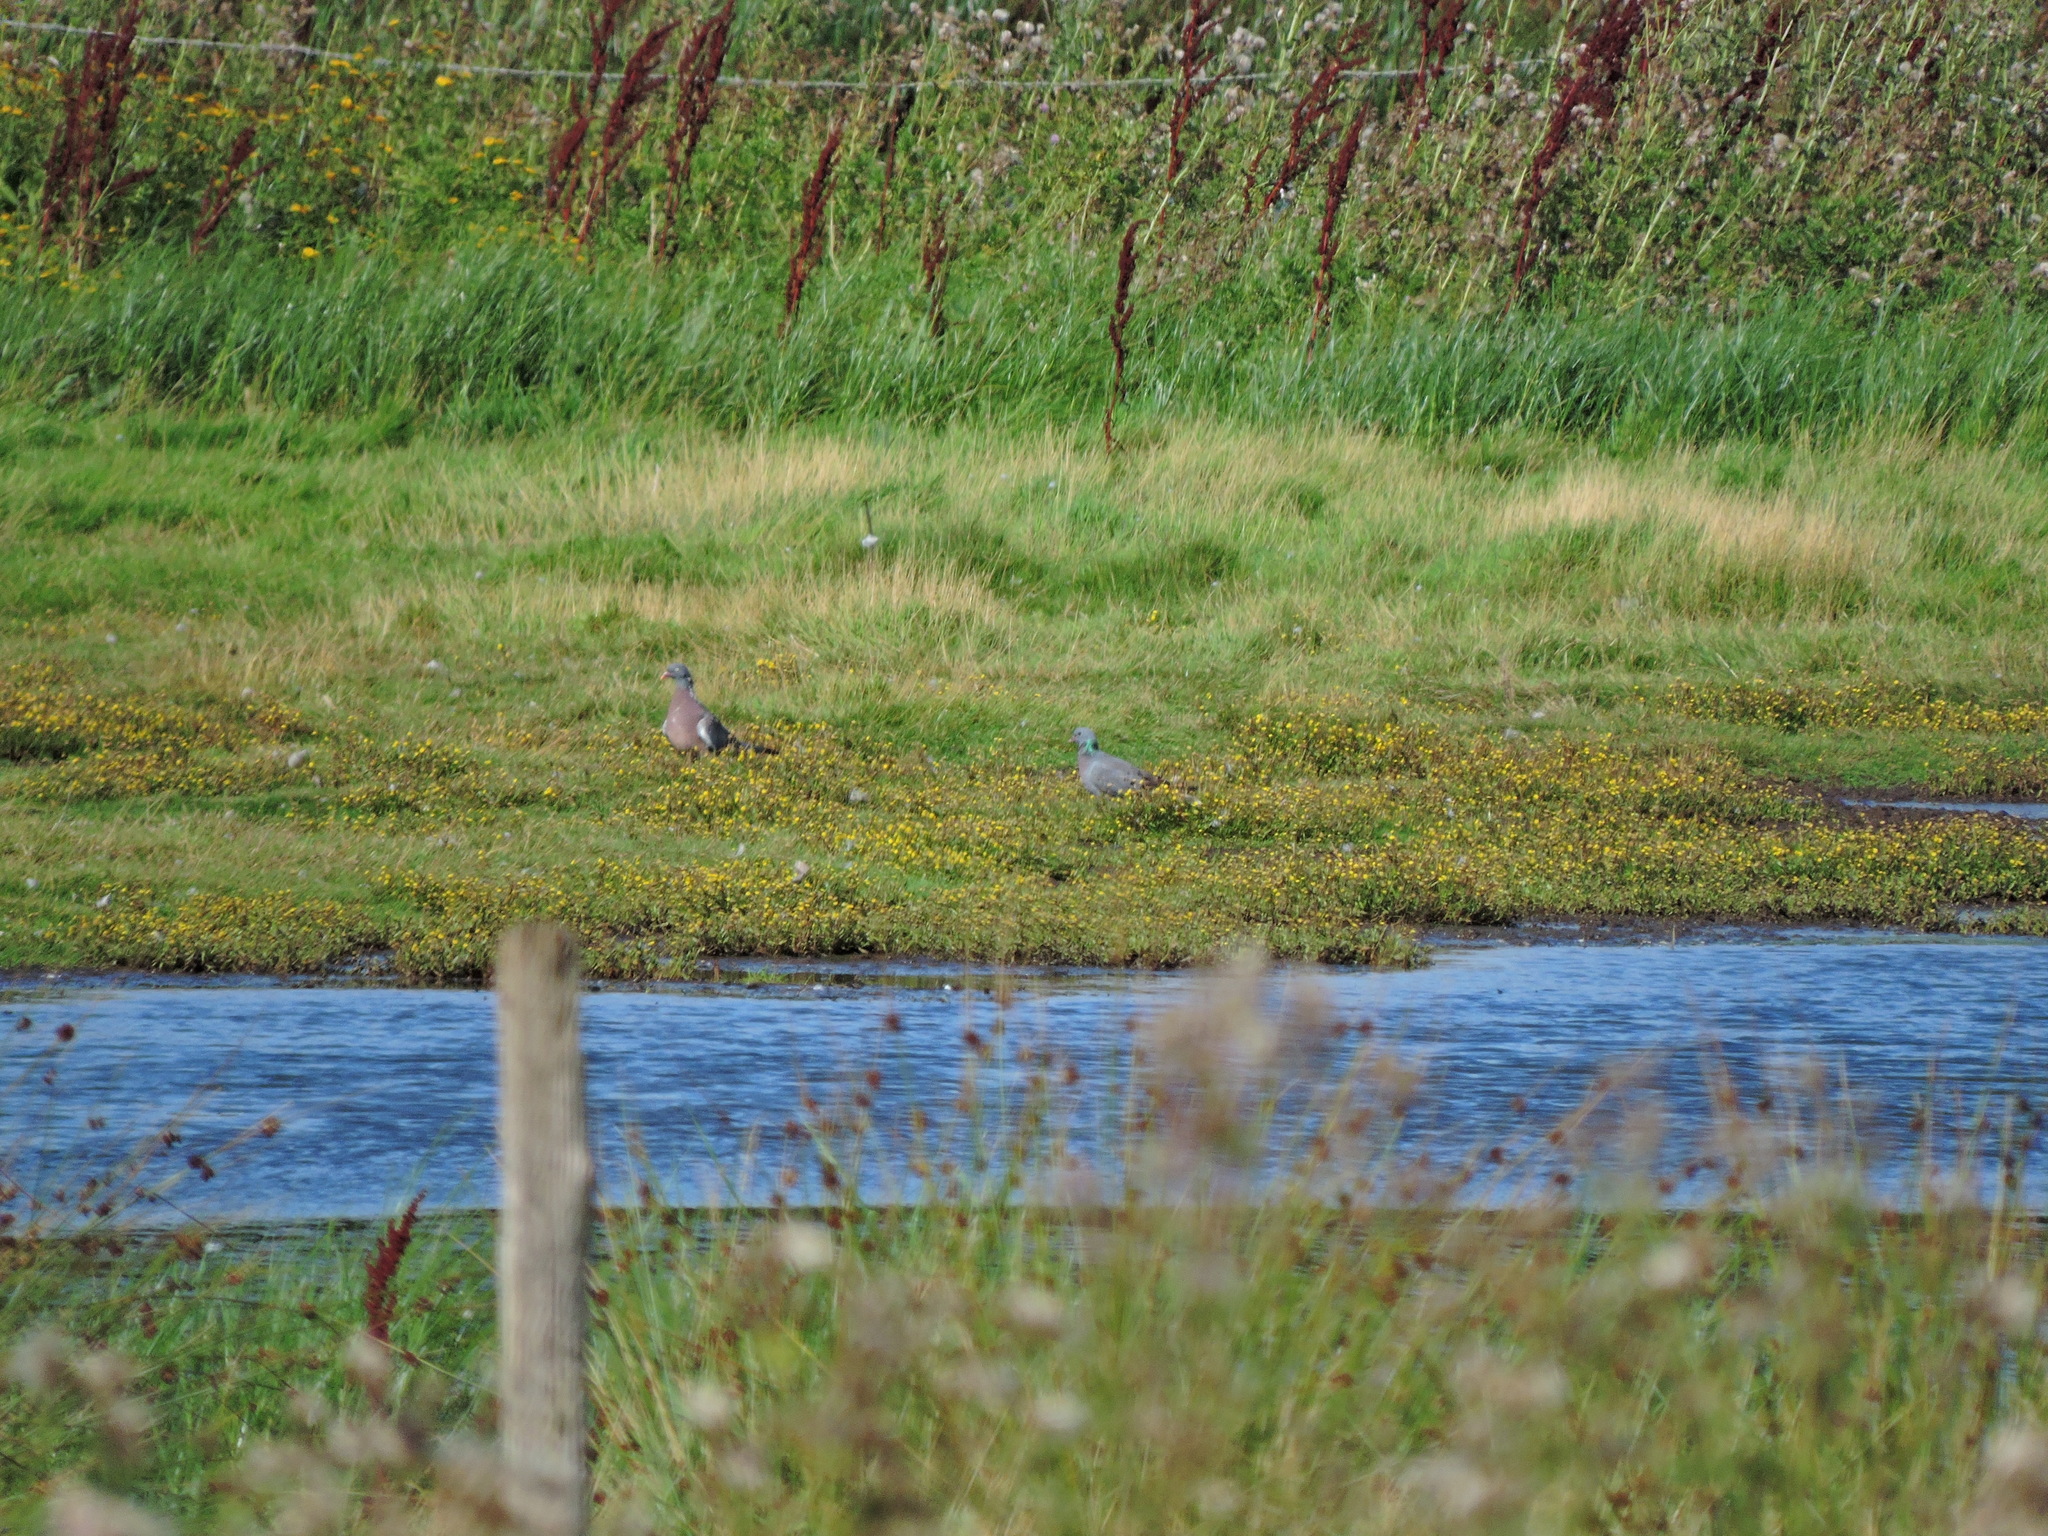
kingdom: Animalia
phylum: Chordata
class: Aves
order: Columbiformes
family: Columbidae
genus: Columba
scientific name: Columba palumbus
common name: Common wood pigeon
